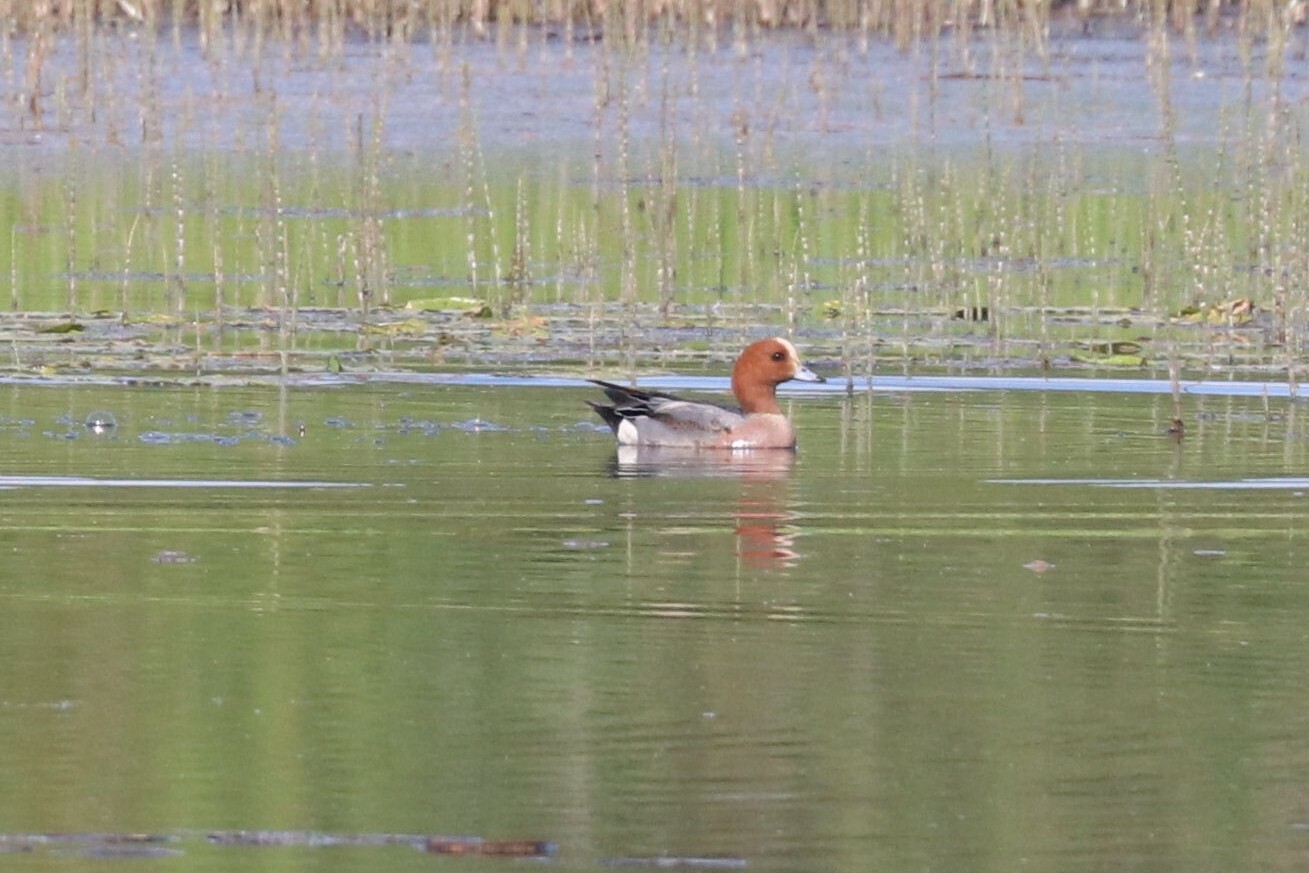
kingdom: Animalia
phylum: Chordata
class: Aves
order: Anseriformes
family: Anatidae
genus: Mareca
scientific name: Mareca penelope
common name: Eurasian wigeon
